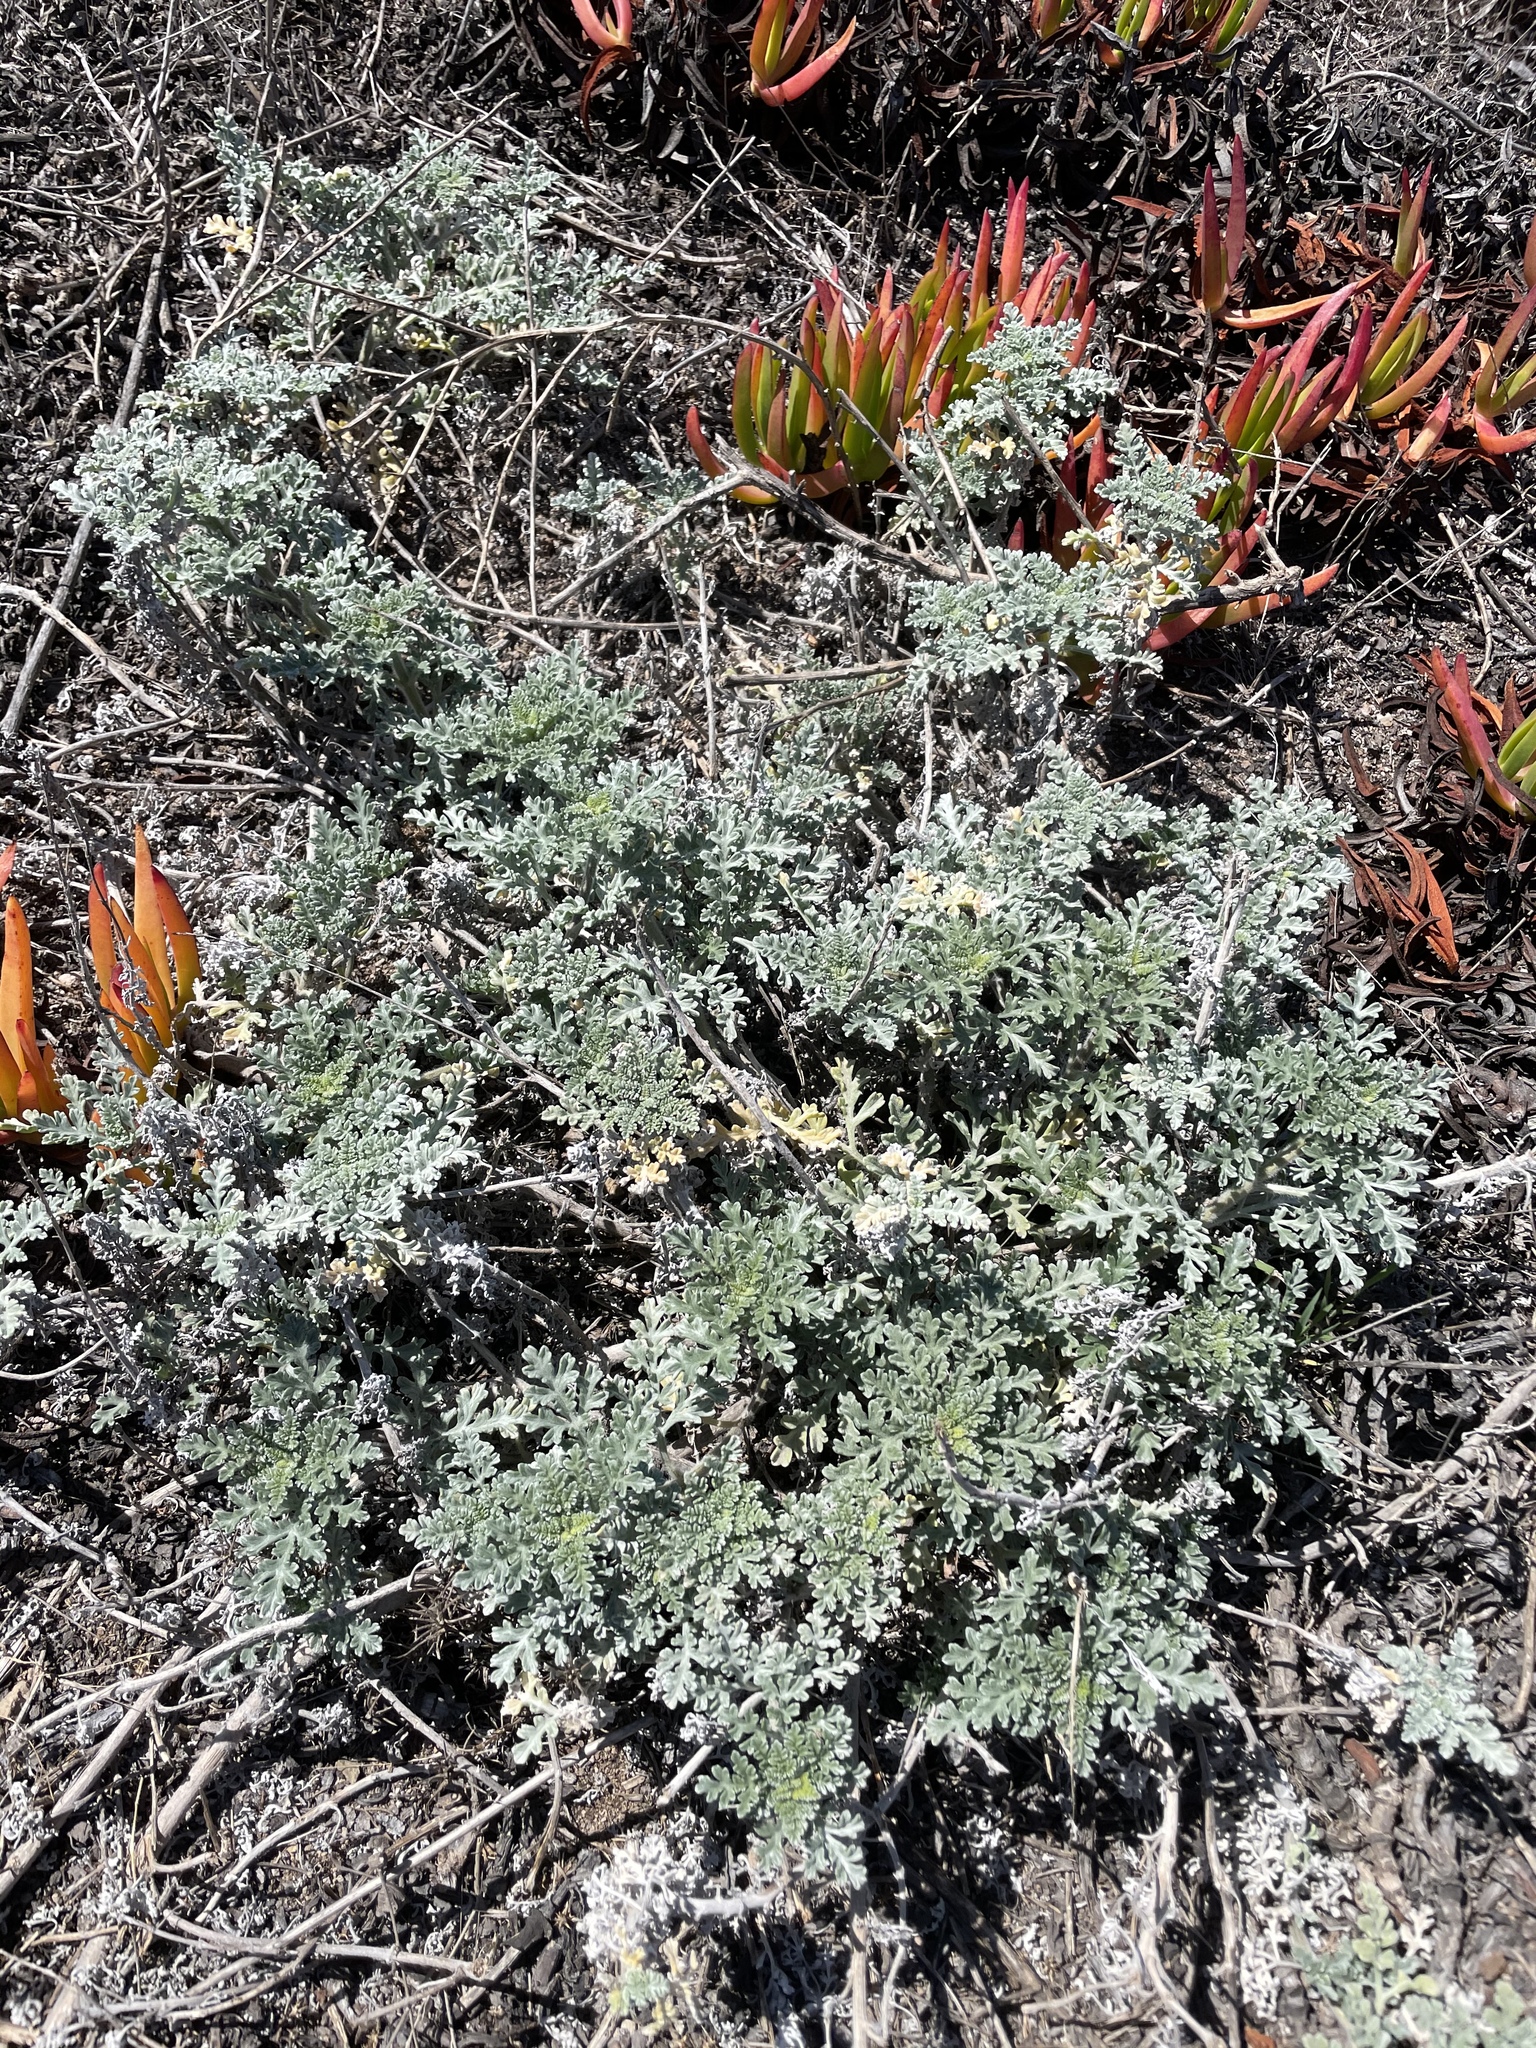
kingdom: Plantae
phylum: Tracheophyta
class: Magnoliopsida
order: Asterales
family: Asteraceae
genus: Ambrosia
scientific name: Ambrosia chamissonis
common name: Beachbur
